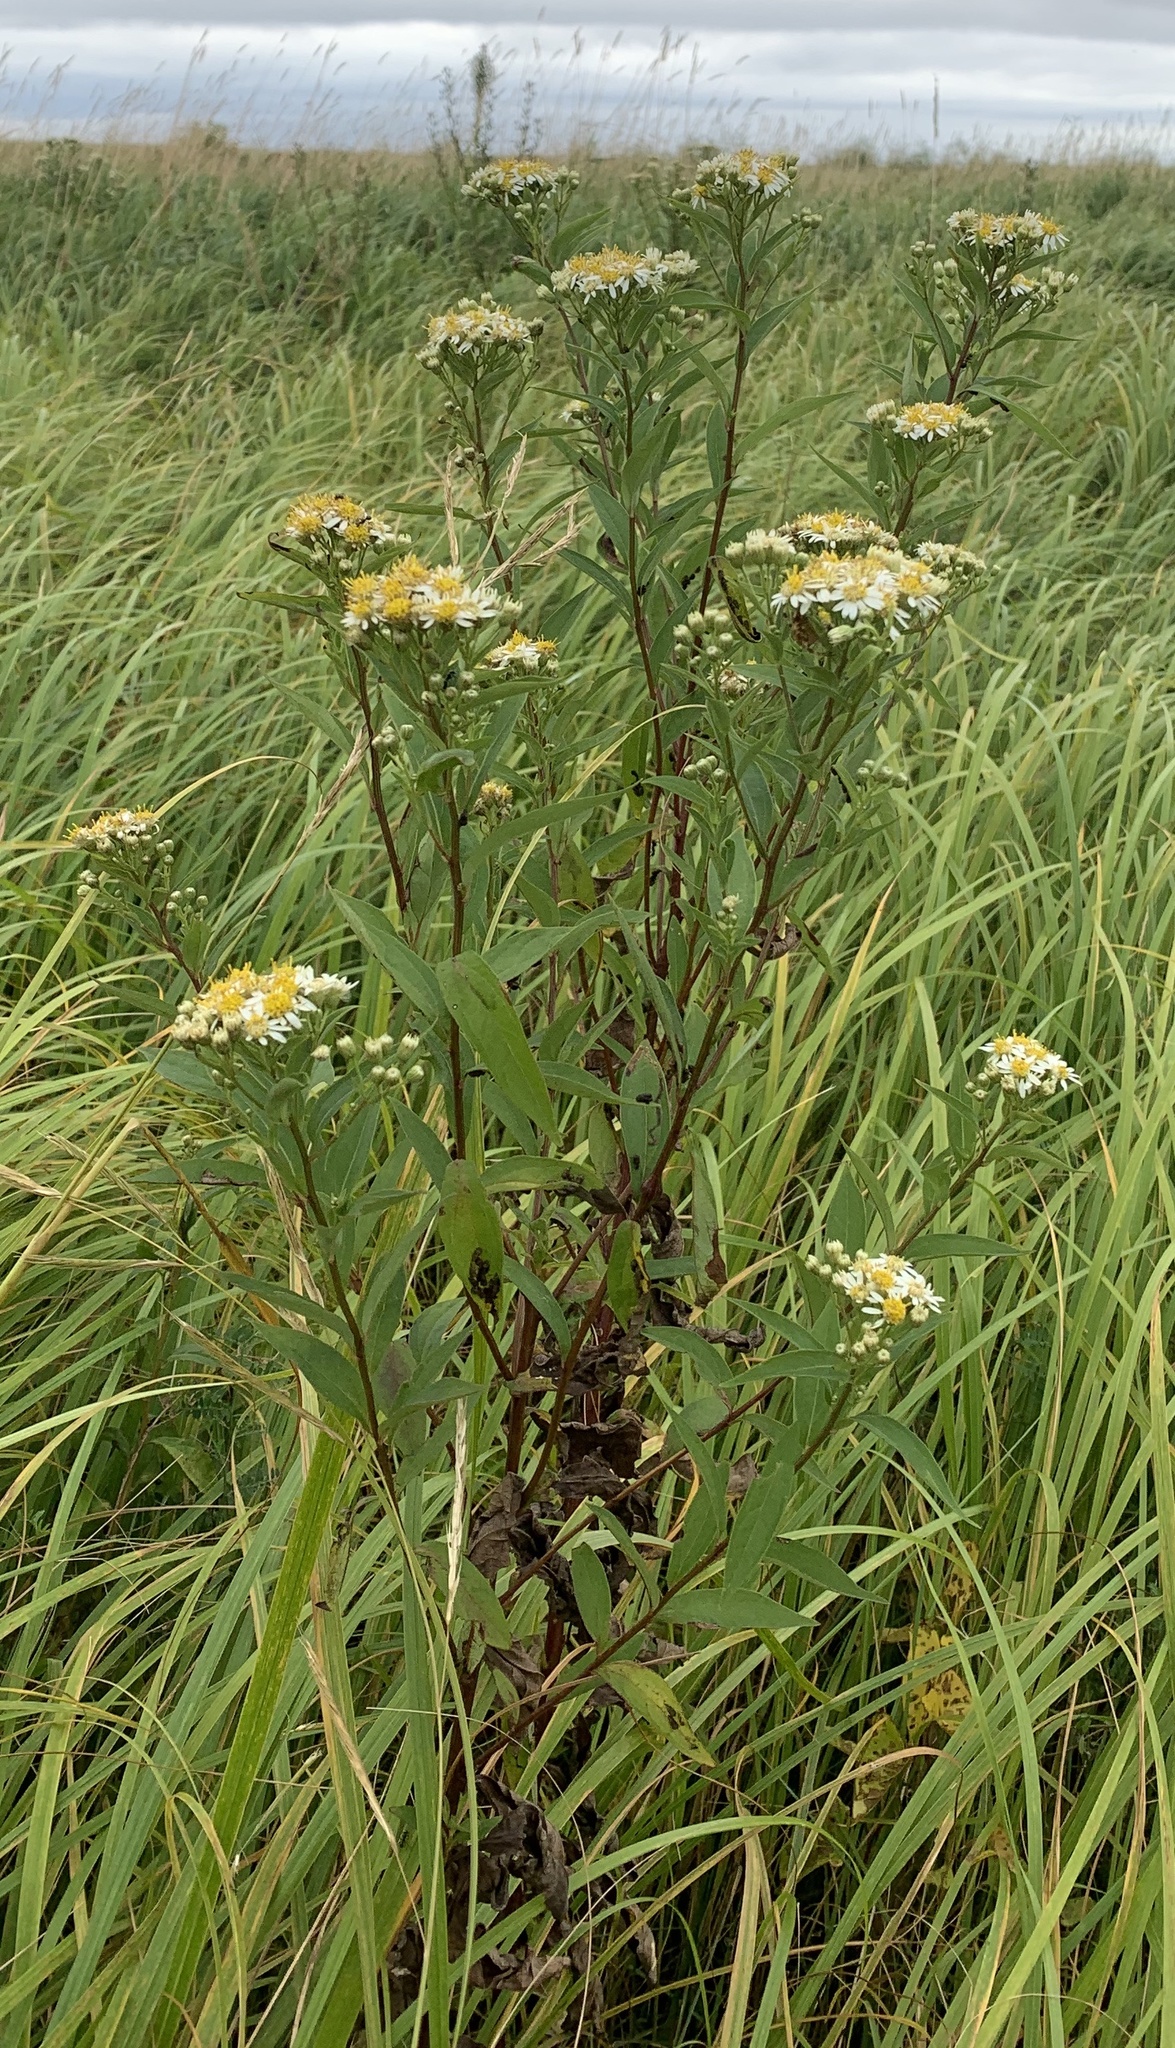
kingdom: Plantae
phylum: Tracheophyta
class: Magnoliopsida
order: Asterales
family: Asteraceae
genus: Doellingeria
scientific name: Doellingeria umbellata
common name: Flat-top white aster
